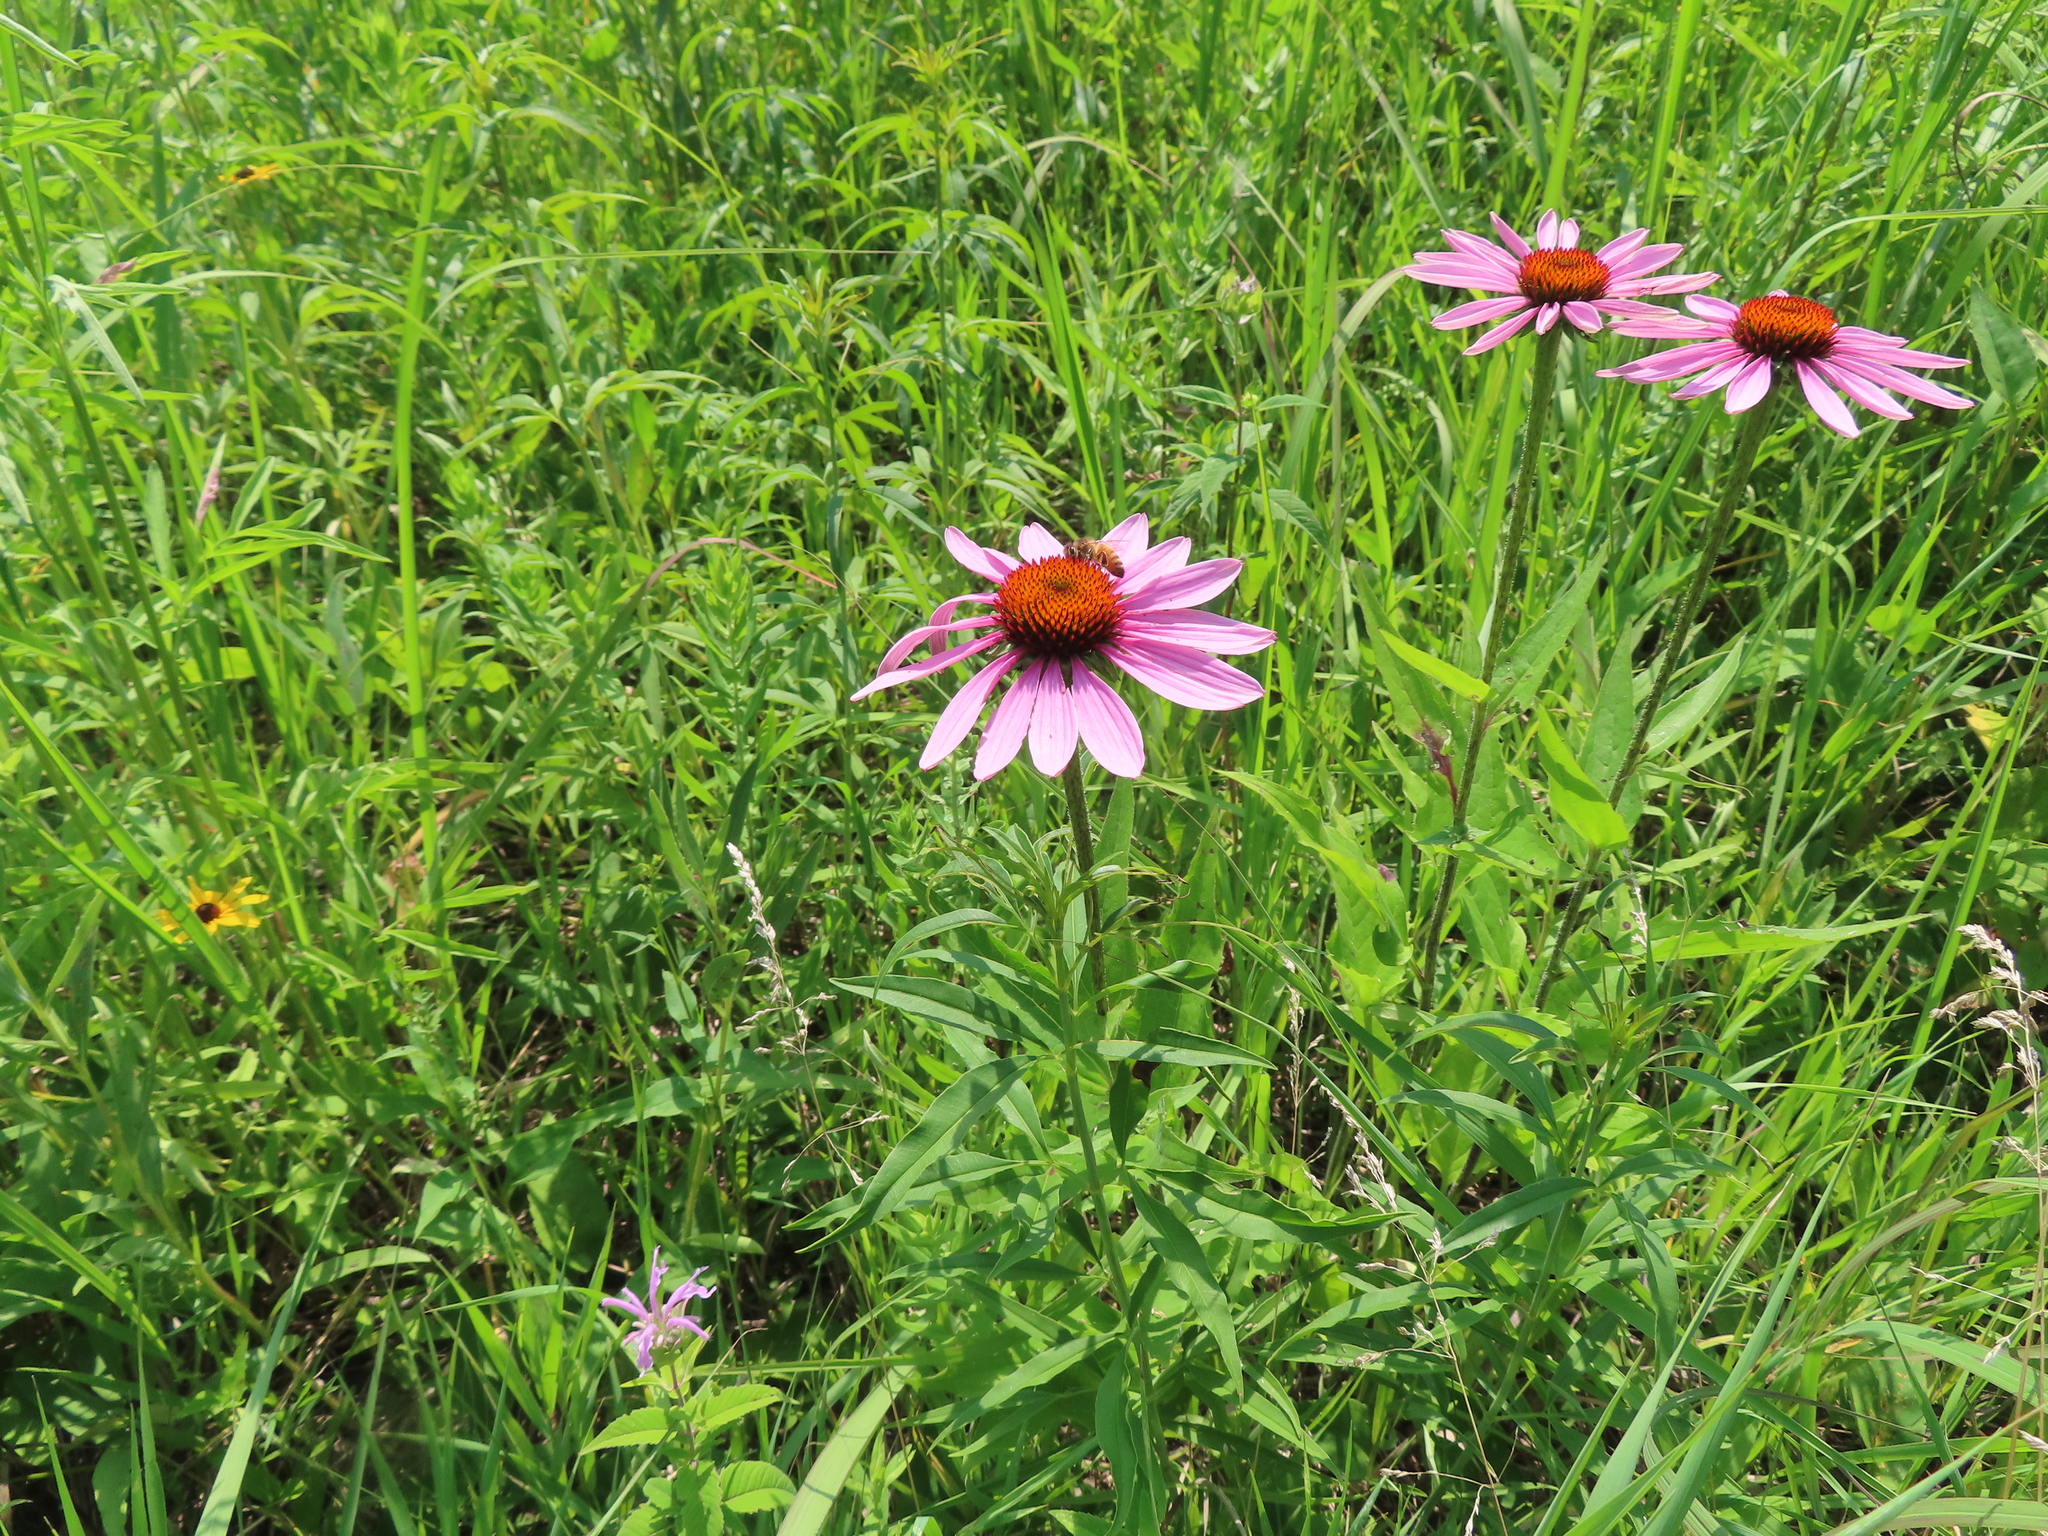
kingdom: Plantae
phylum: Tracheophyta
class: Magnoliopsida
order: Asterales
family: Asteraceae
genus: Echinacea
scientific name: Echinacea purpurea
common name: Broad-leaved purple coneflower
